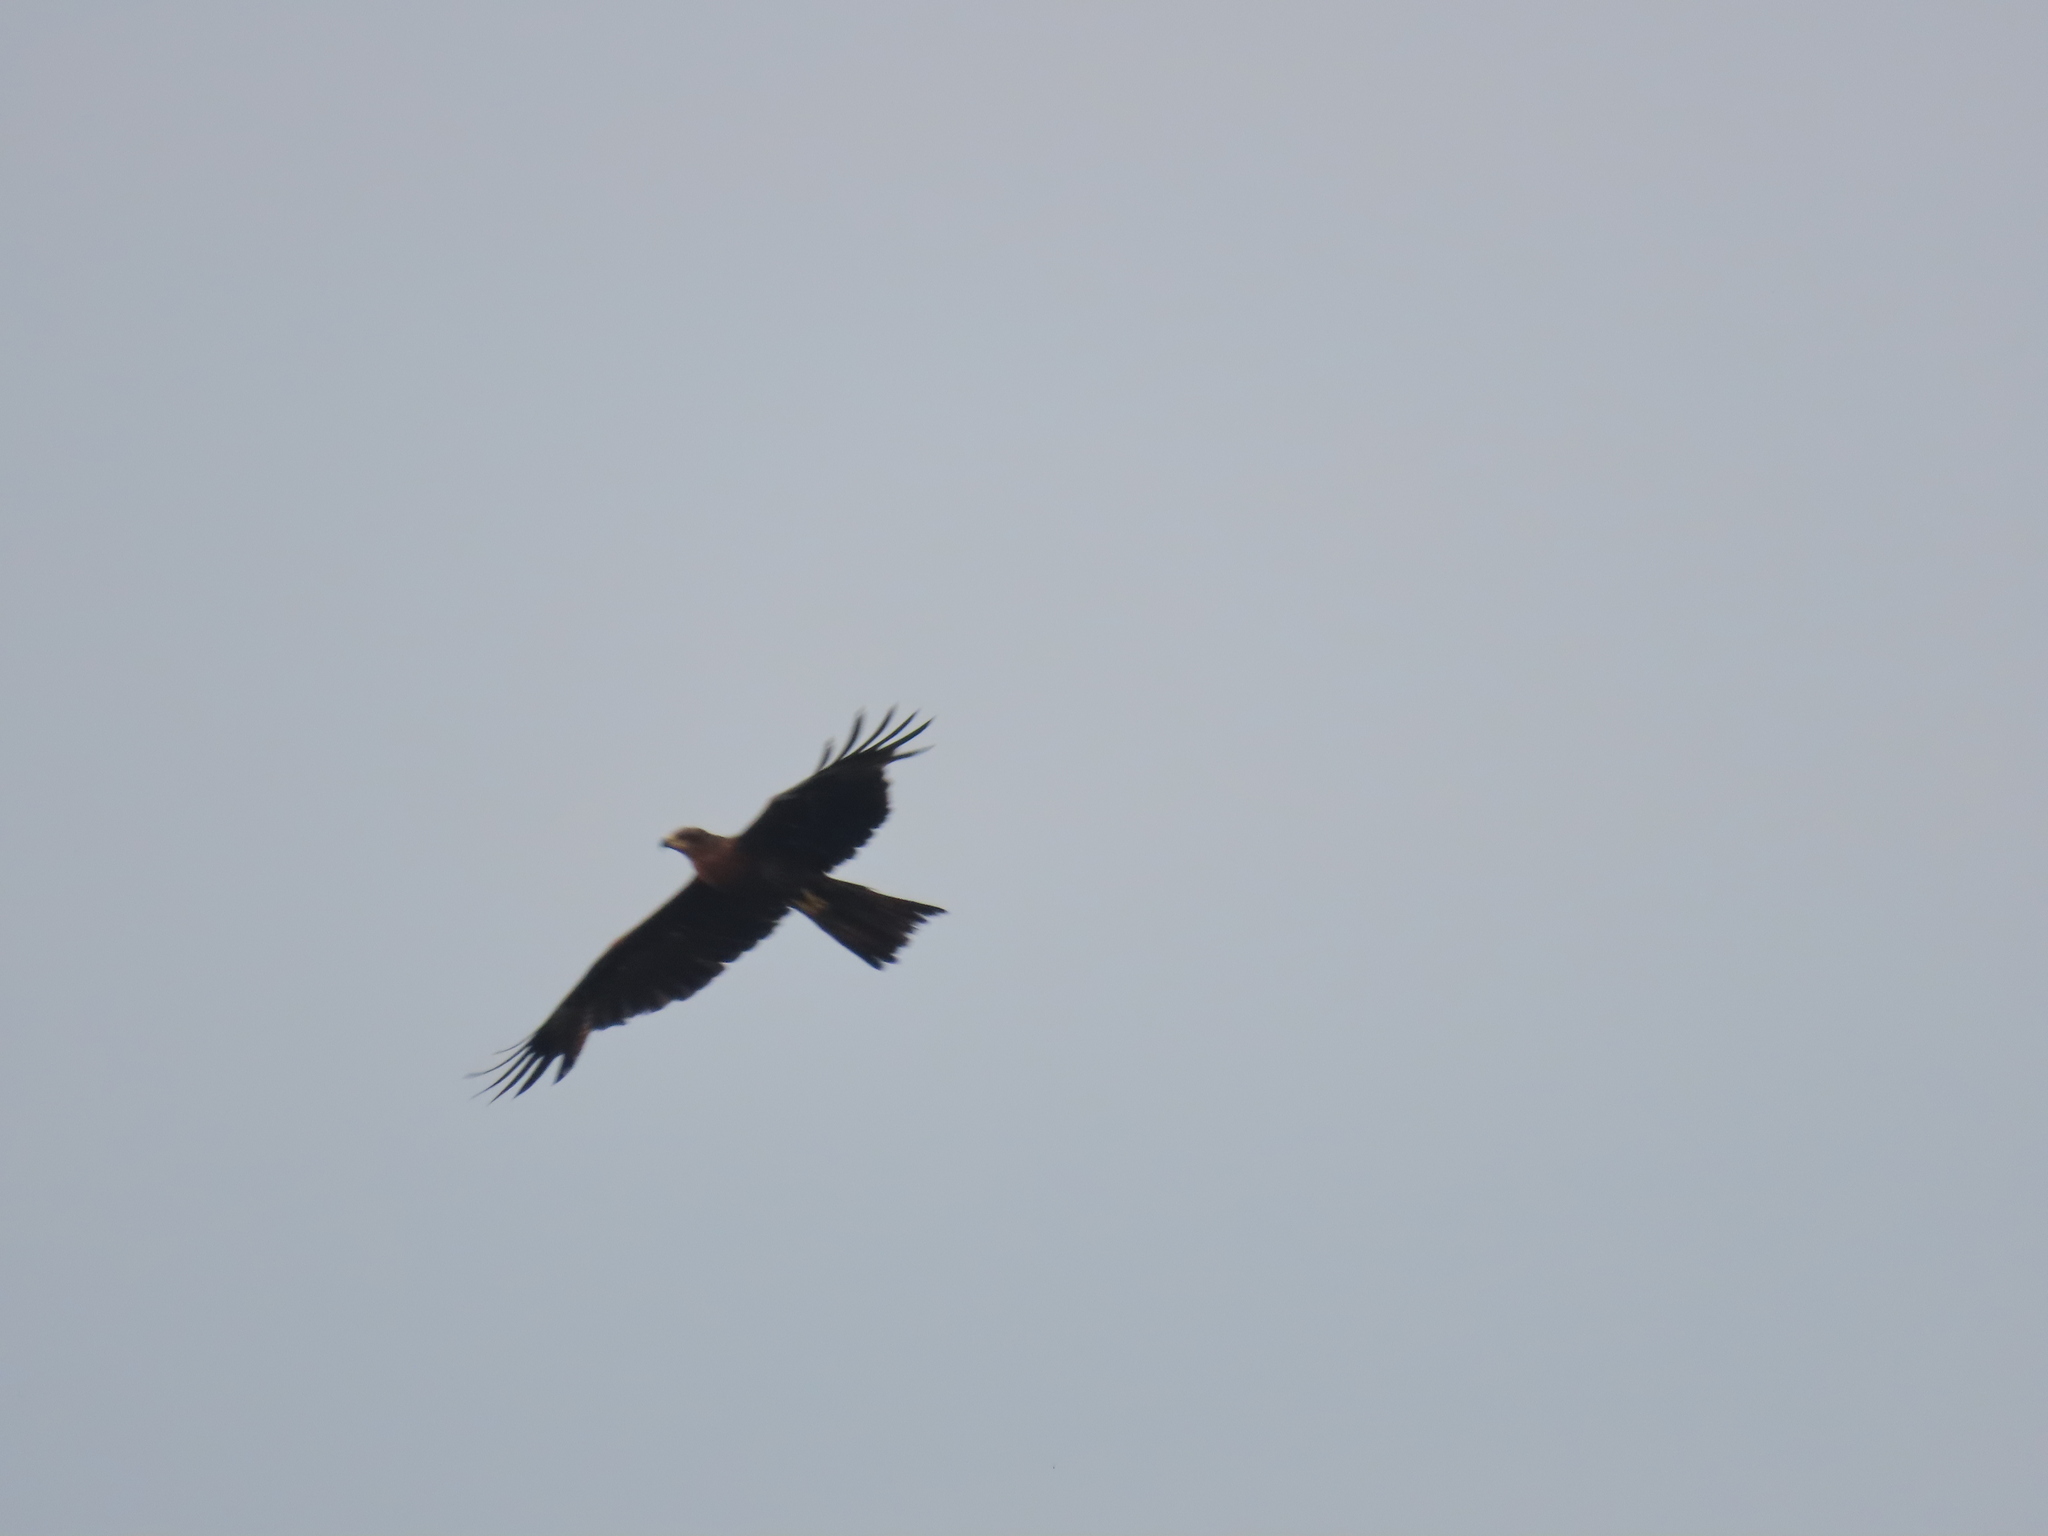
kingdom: Animalia
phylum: Chordata
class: Aves
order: Accipitriformes
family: Accipitridae
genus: Milvus
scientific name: Milvus migrans
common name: Black kite
